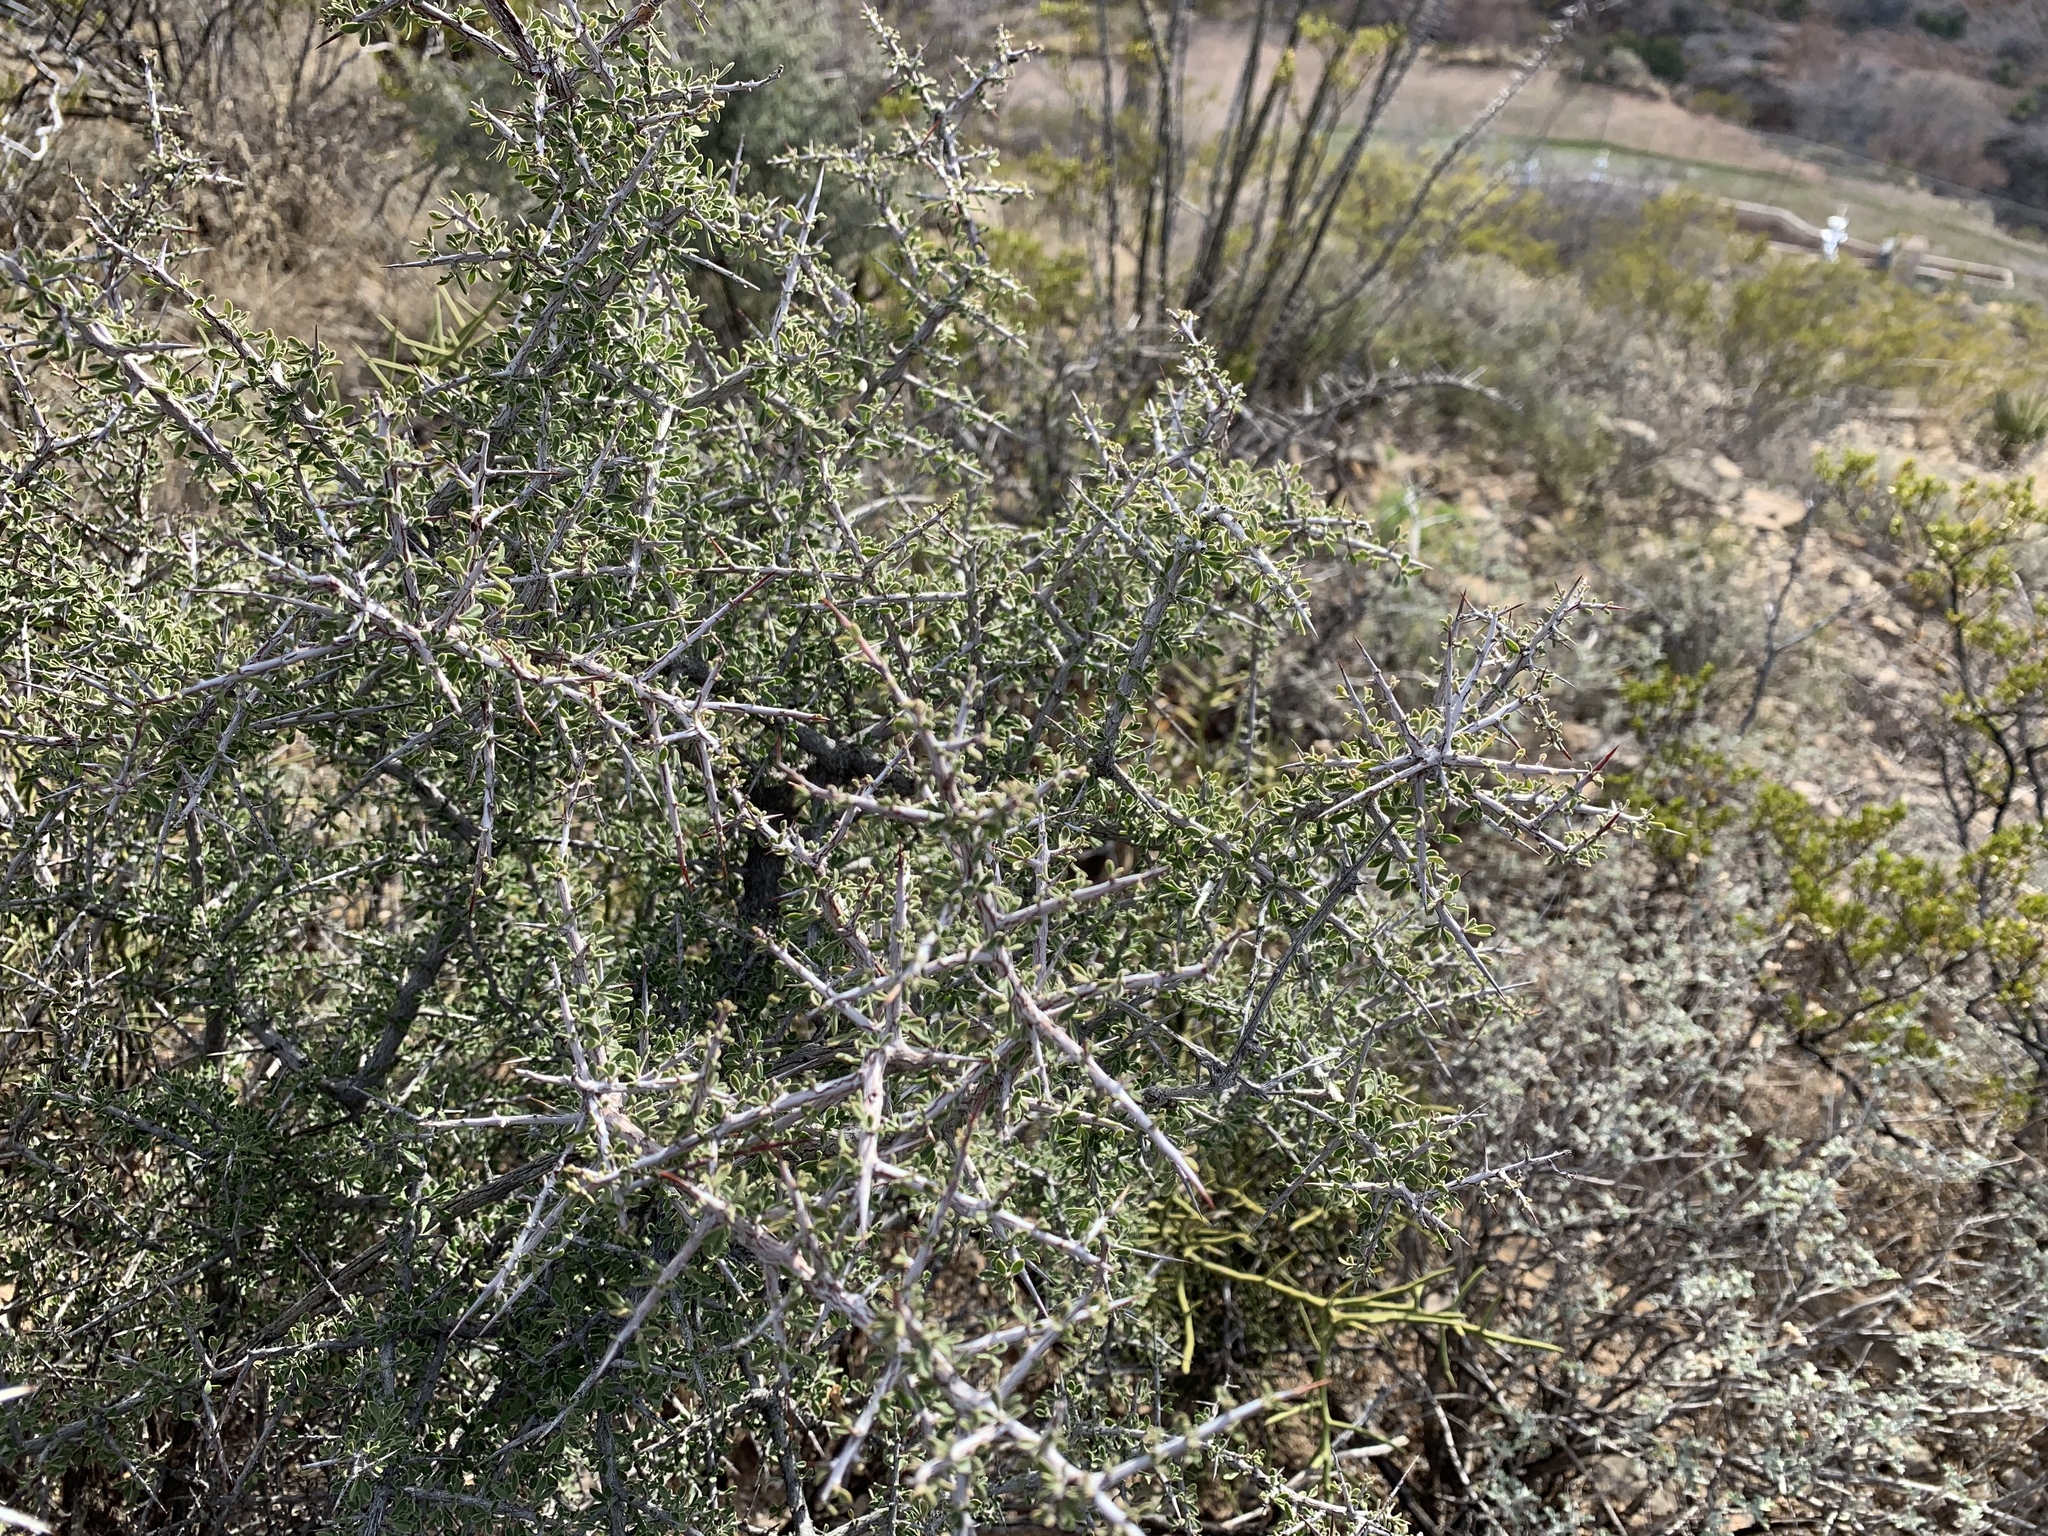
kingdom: Plantae
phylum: Tracheophyta
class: Magnoliopsida
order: Rosales
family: Rhamnaceae
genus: Condalia
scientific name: Condalia warnockii
